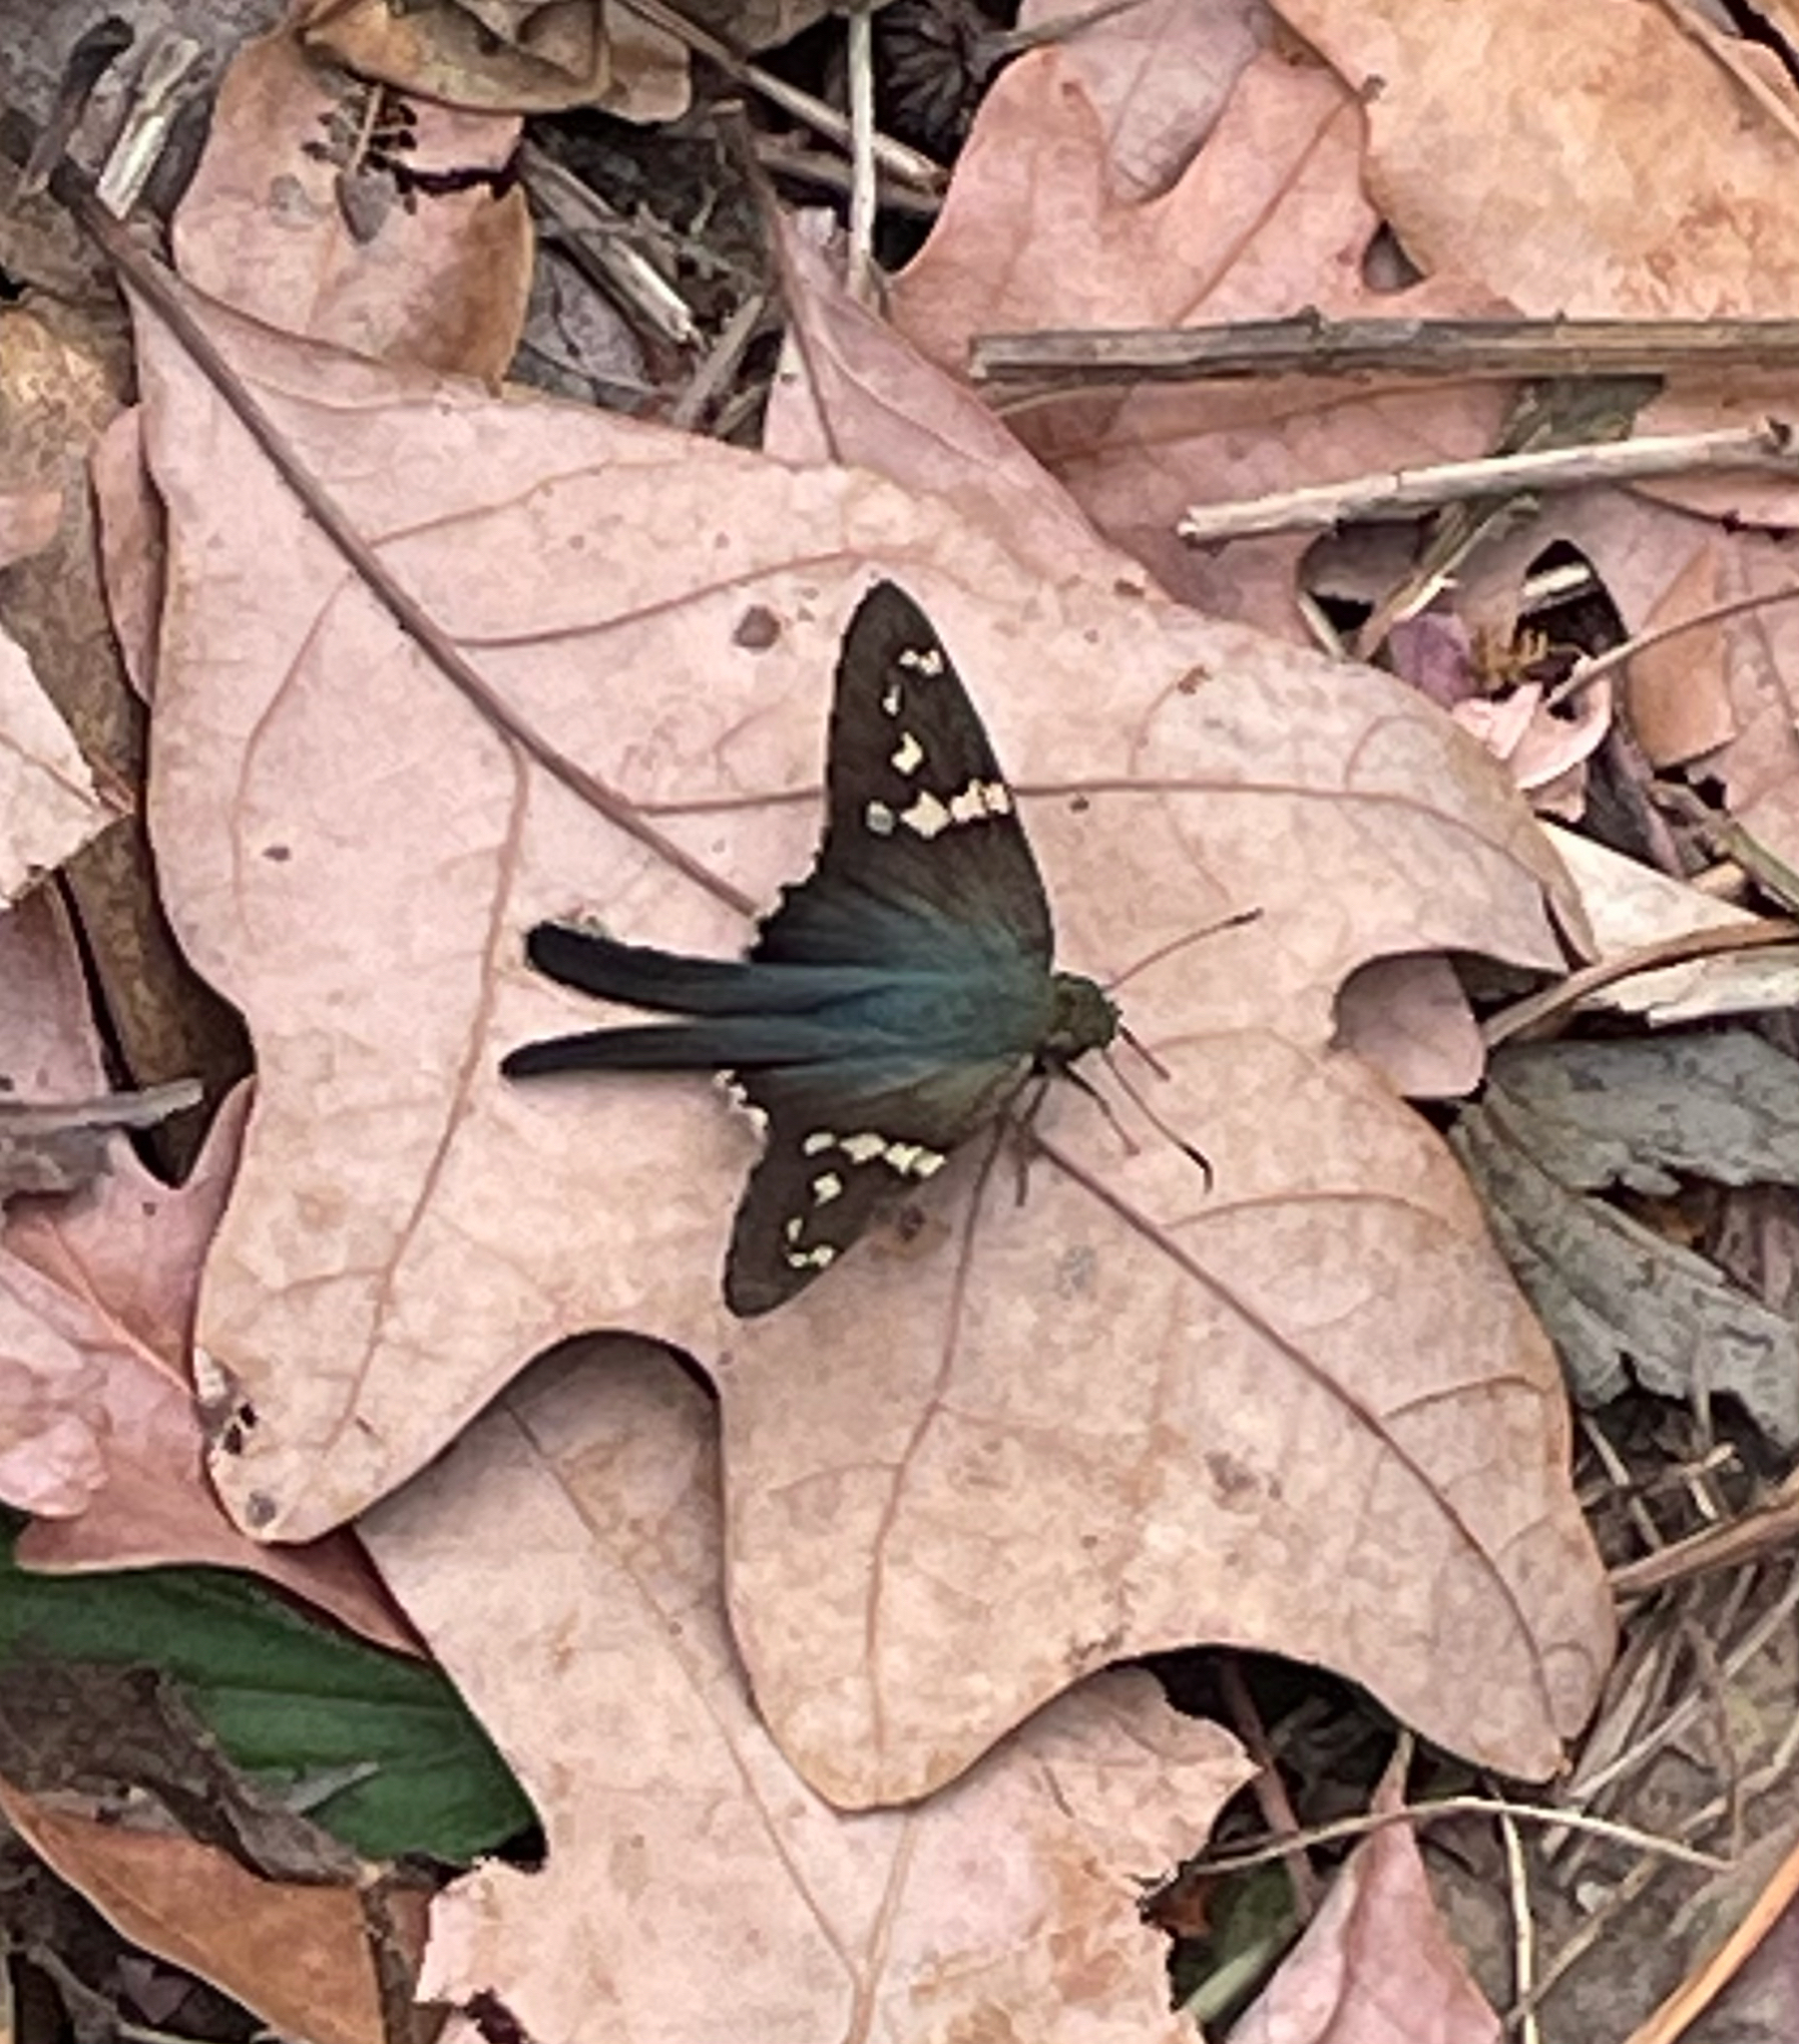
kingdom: Animalia
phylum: Arthropoda
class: Insecta
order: Lepidoptera
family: Hesperiidae
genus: Urbanus
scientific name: Urbanus proteus
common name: Long-tailed skipper
